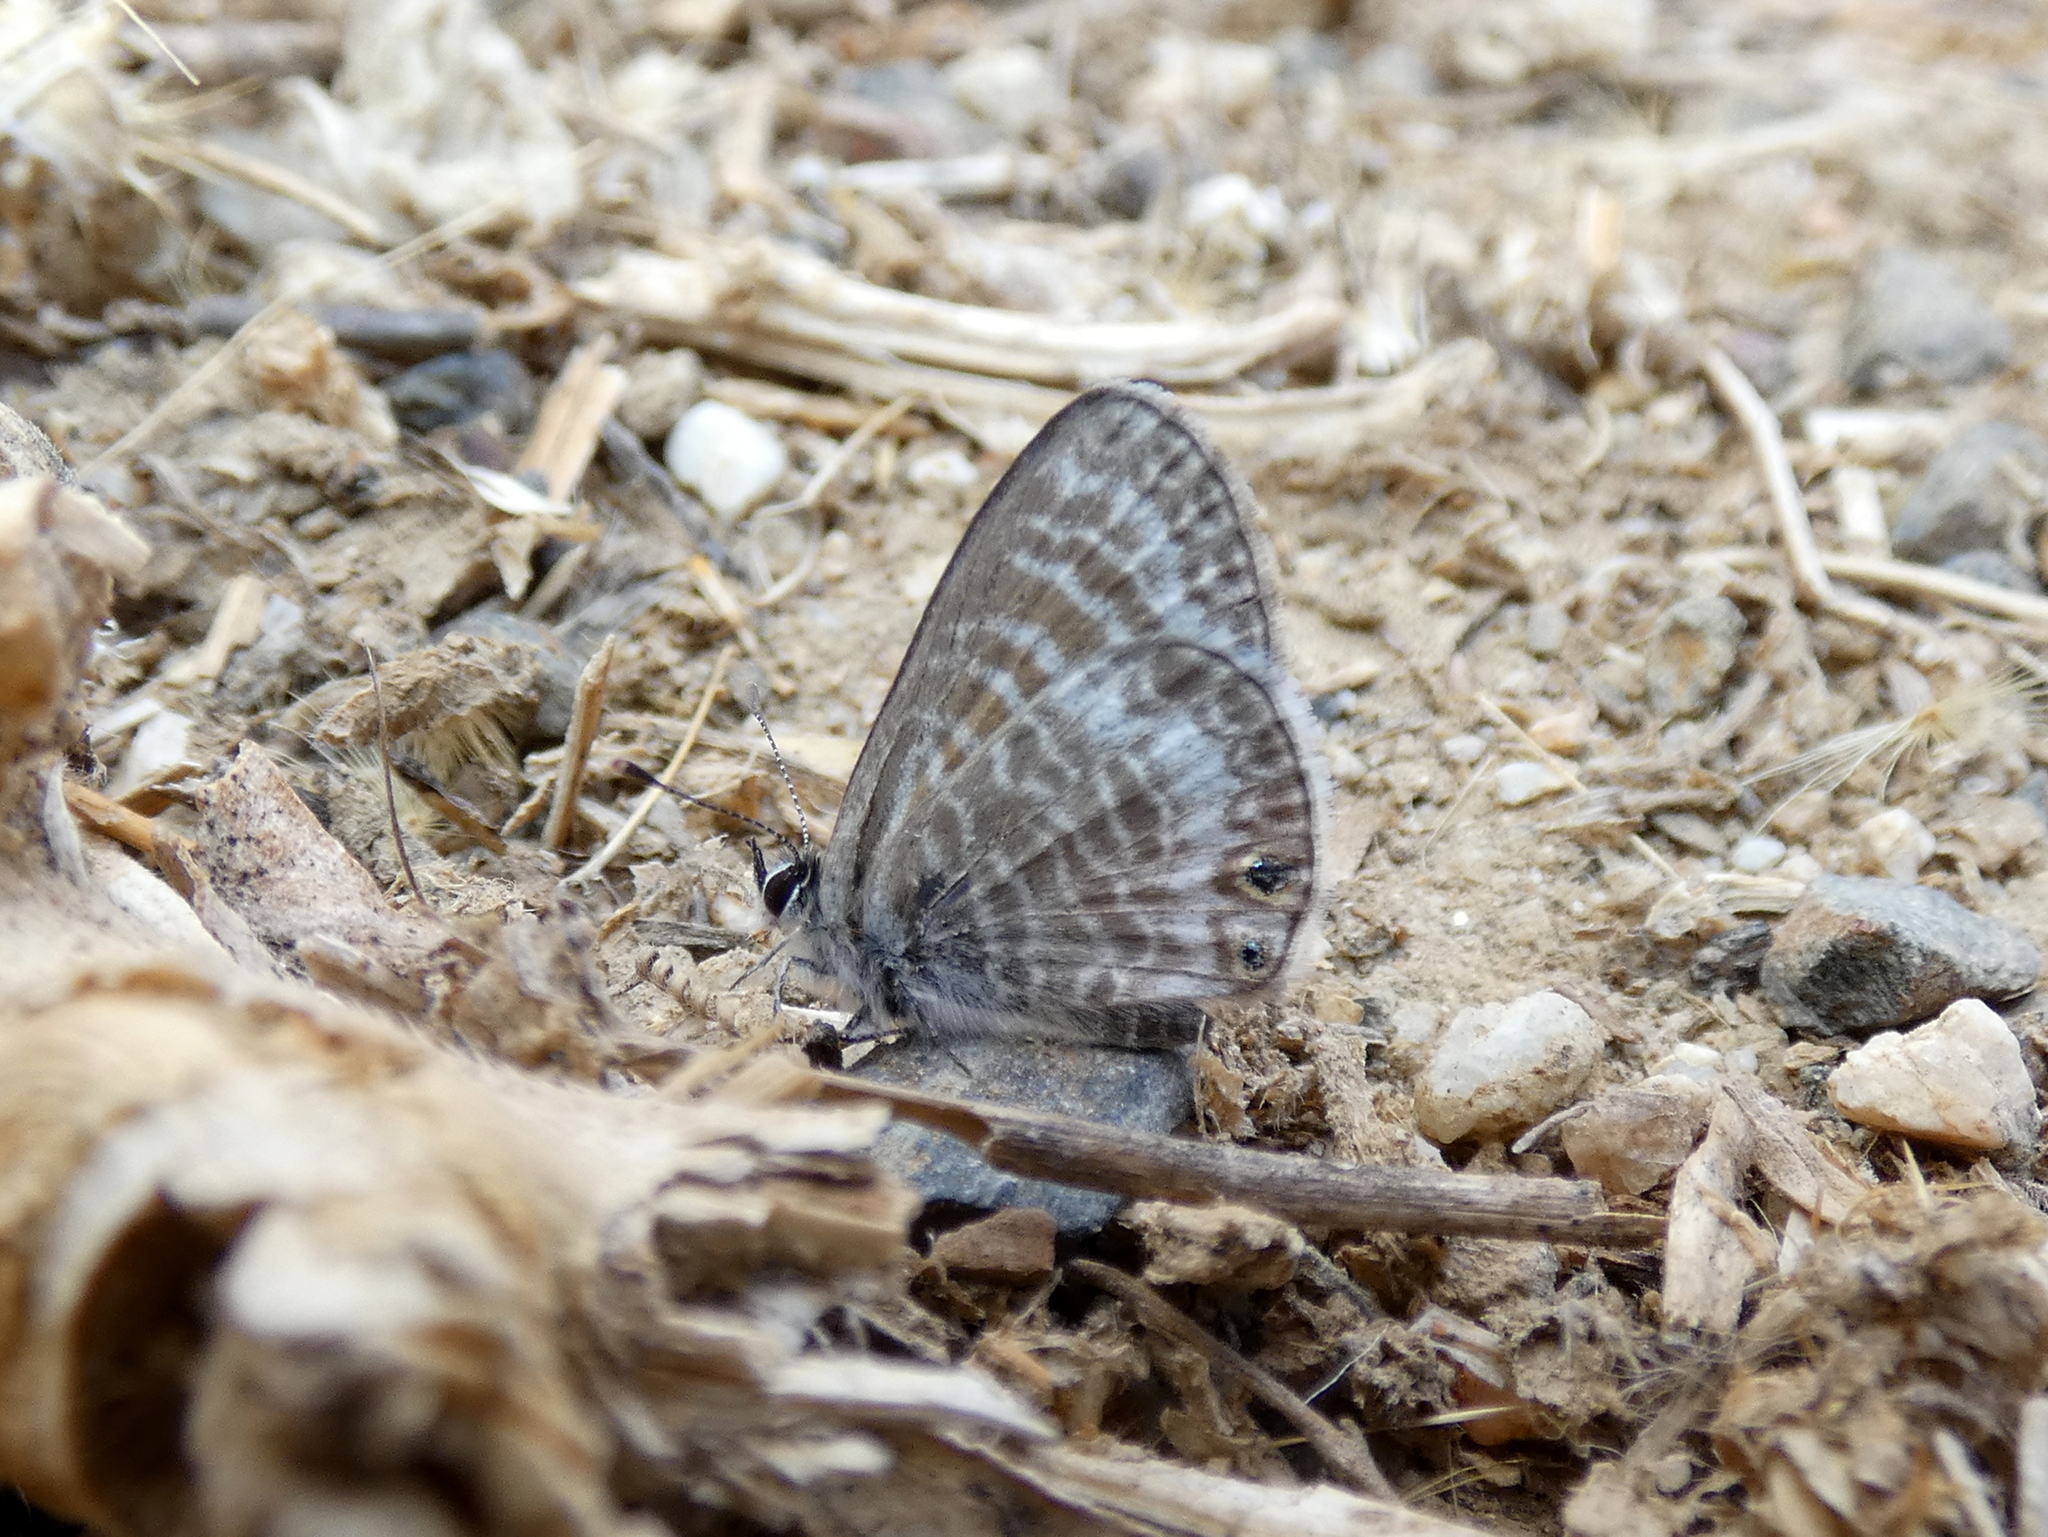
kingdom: Animalia
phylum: Arthropoda
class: Insecta
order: Lepidoptera
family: Lycaenidae
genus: Leptotes
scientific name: Leptotes marina
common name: Marine blue
